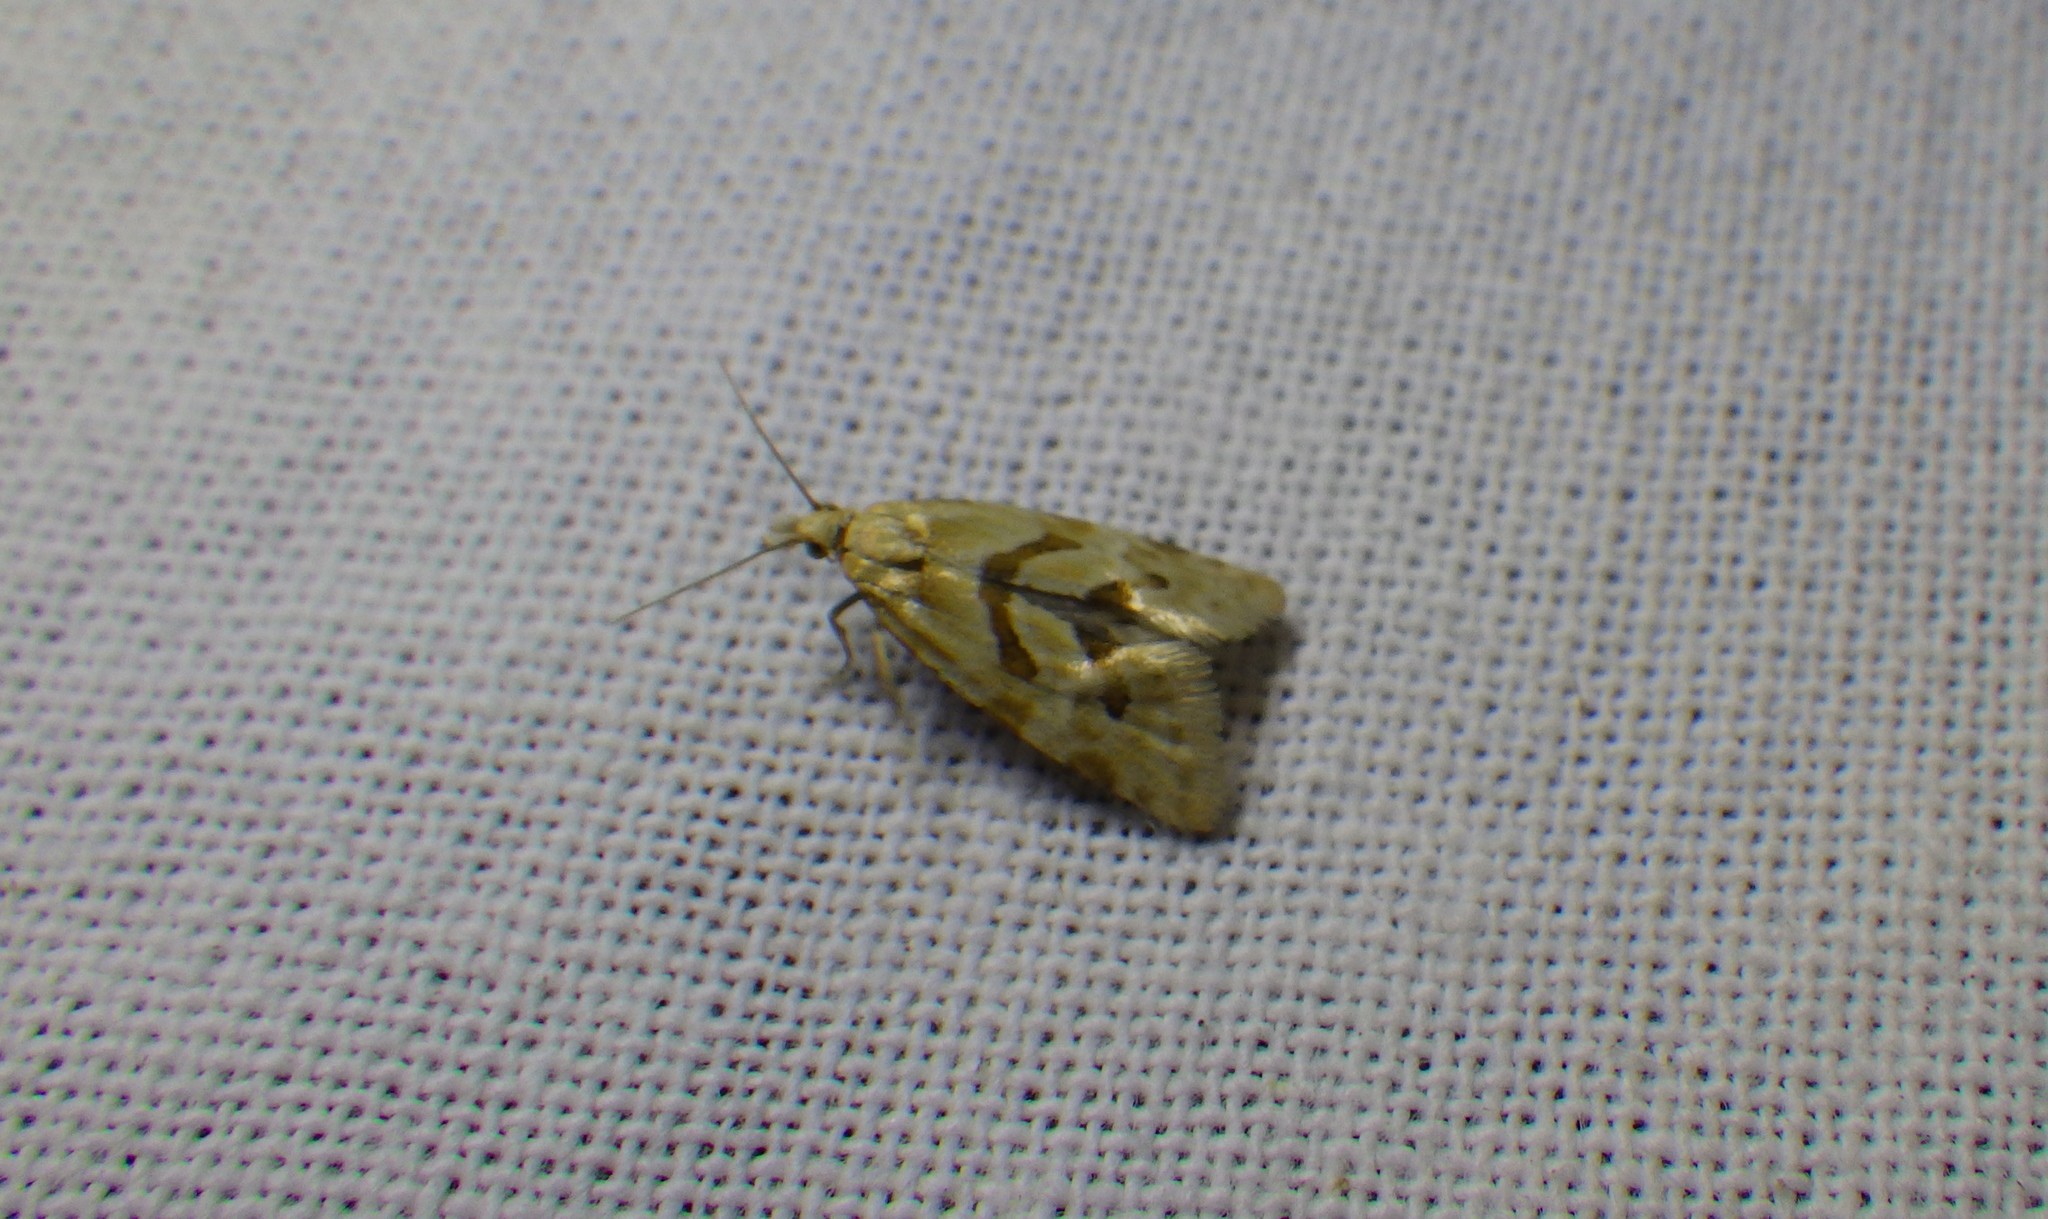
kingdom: Animalia
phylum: Arthropoda
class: Insecta
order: Lepidoptera
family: Tortricidae
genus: Aethes
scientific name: Aethes smeathmanniana
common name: Yarrow conch
